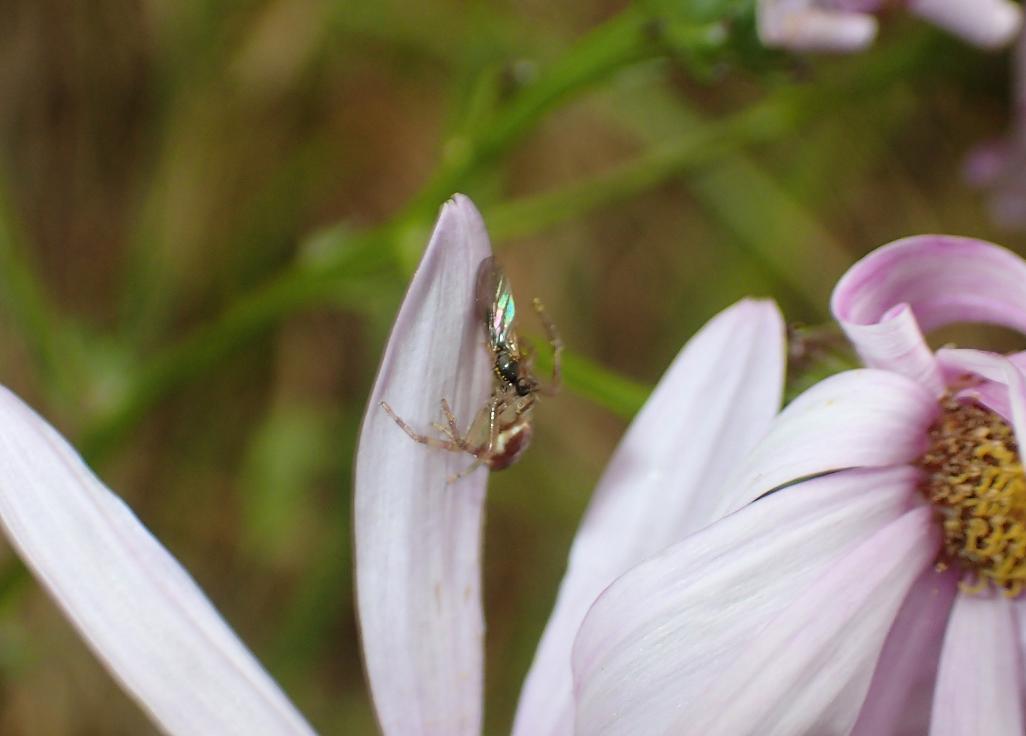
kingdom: Animalia
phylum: Arthropoda
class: Arachnida
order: Araneae
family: Thomisidae
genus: Diaea
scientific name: Diaea ambara
